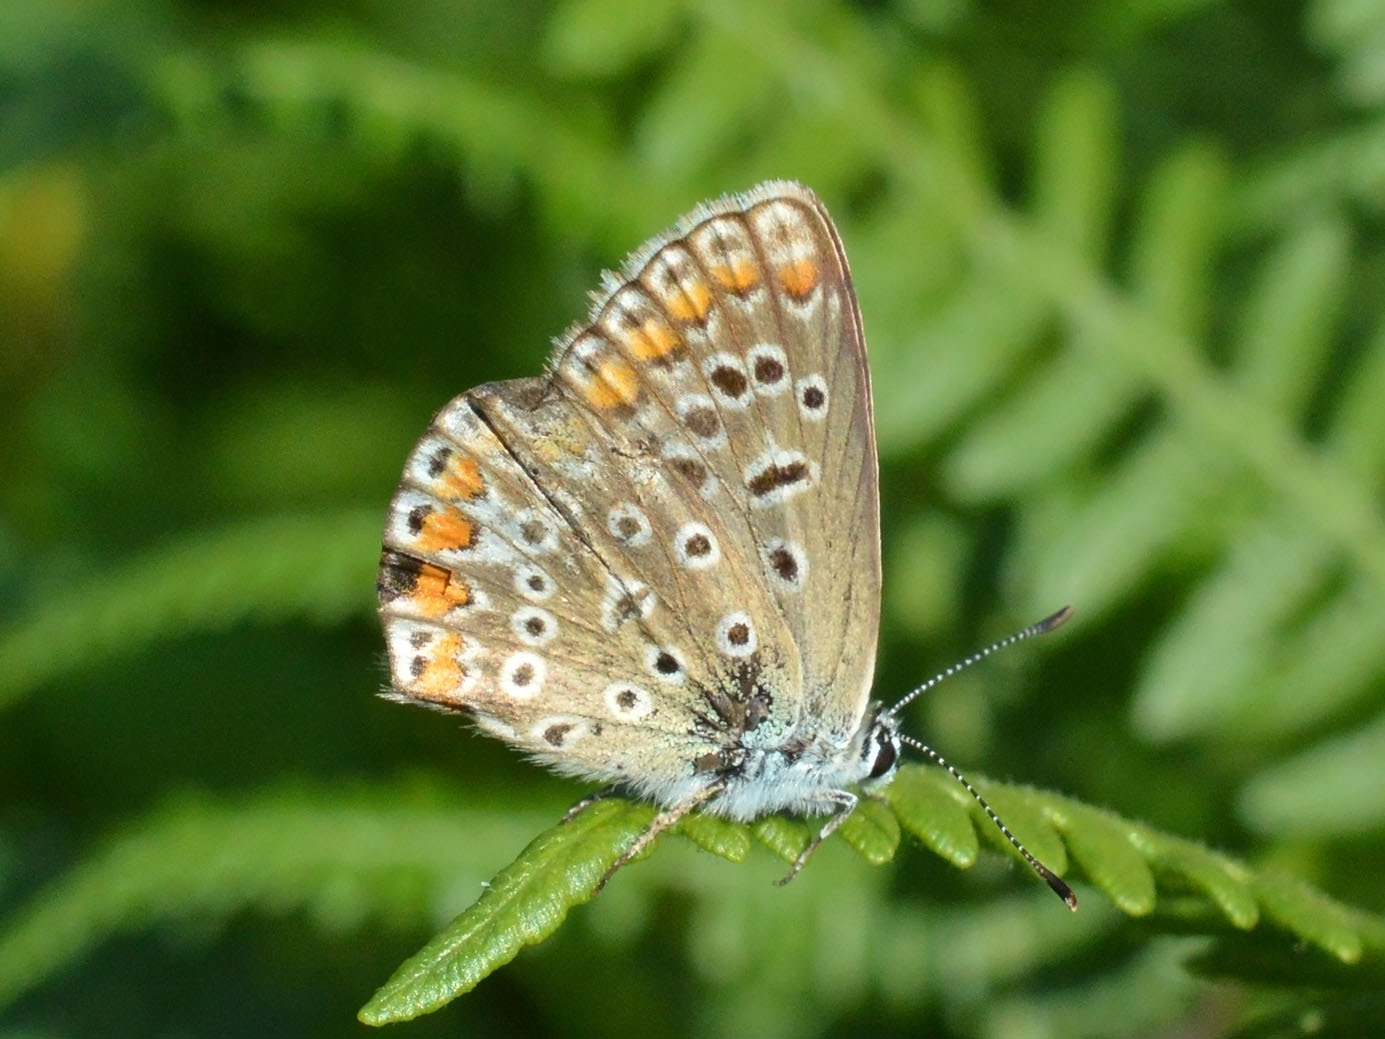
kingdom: Animalia
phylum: Arthropoda
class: Insecta
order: Lepidoptera
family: Lycaenidae
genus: Polyommatus
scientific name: Polyommatus icarus
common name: Common blue
